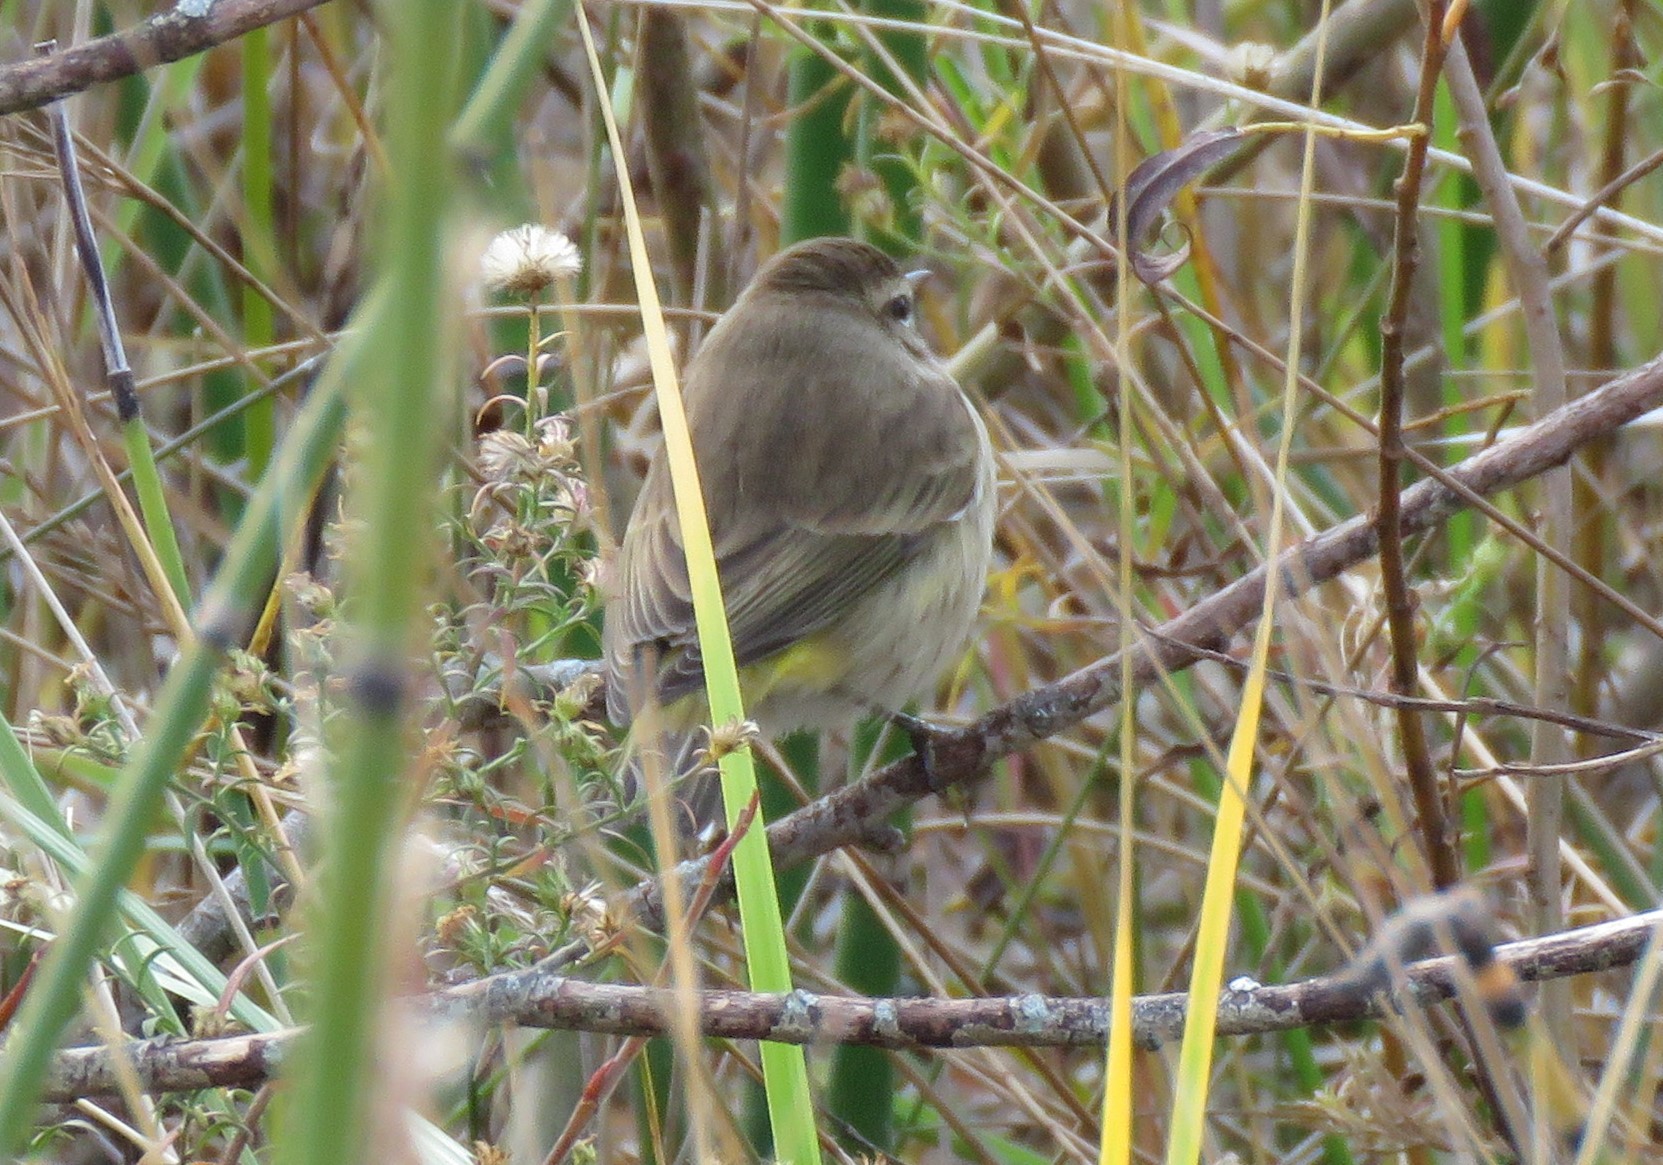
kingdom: Animalia
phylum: Chordata
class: Aves
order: Passeriformes
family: Parulidae
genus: Setophaga
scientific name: Setophaga palmarum
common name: Palm warbler
